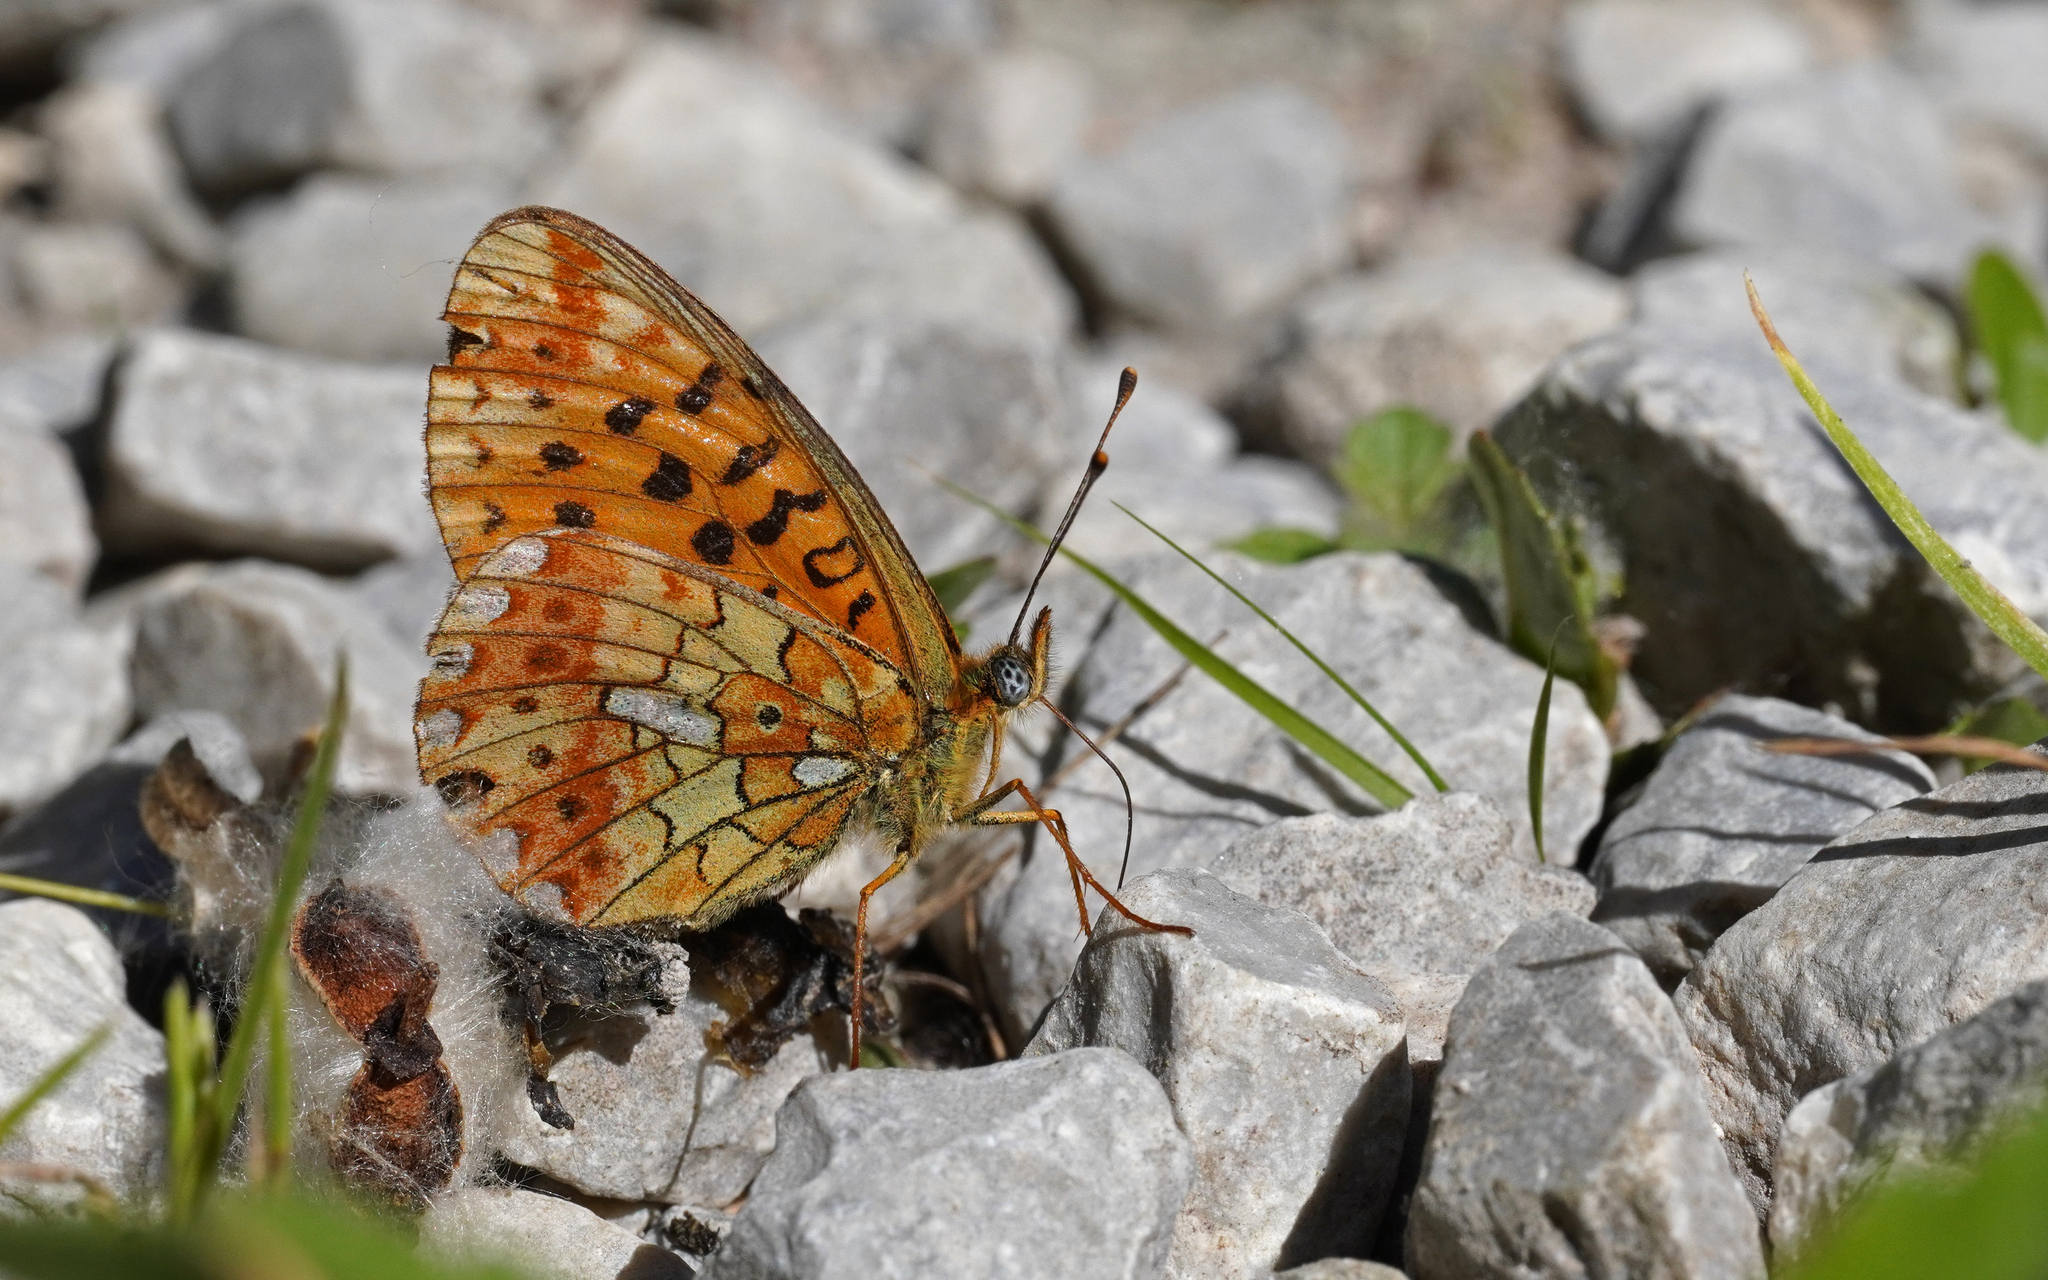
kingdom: Animalia
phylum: Arthropoda
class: Insecta
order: Lepidoptera
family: Nymphalidae
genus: Clossiana
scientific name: Clossiana euphrosyne
